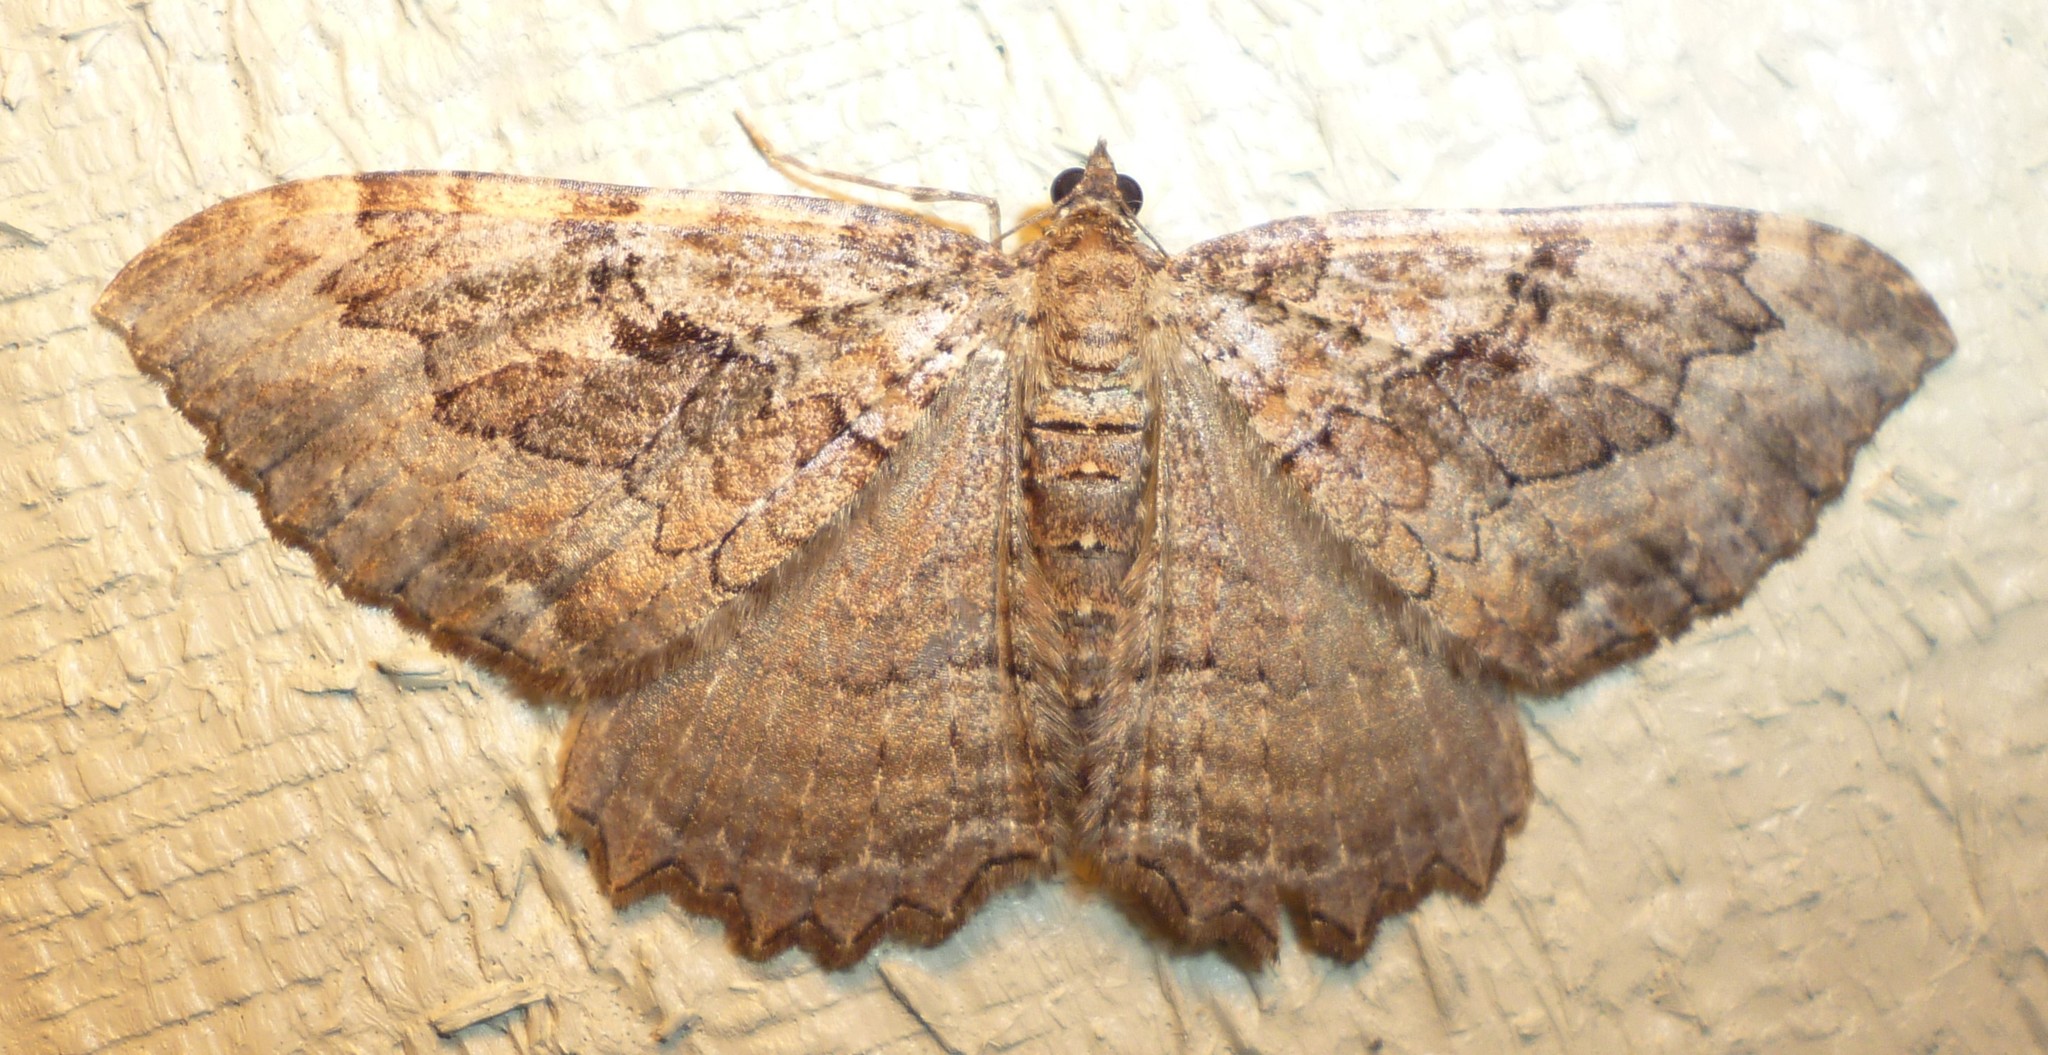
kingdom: Animalia
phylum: Arthropoda
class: Insecta
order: Lepidoptera
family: Geometridae
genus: Rheumaptera
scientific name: Rheumaptera
